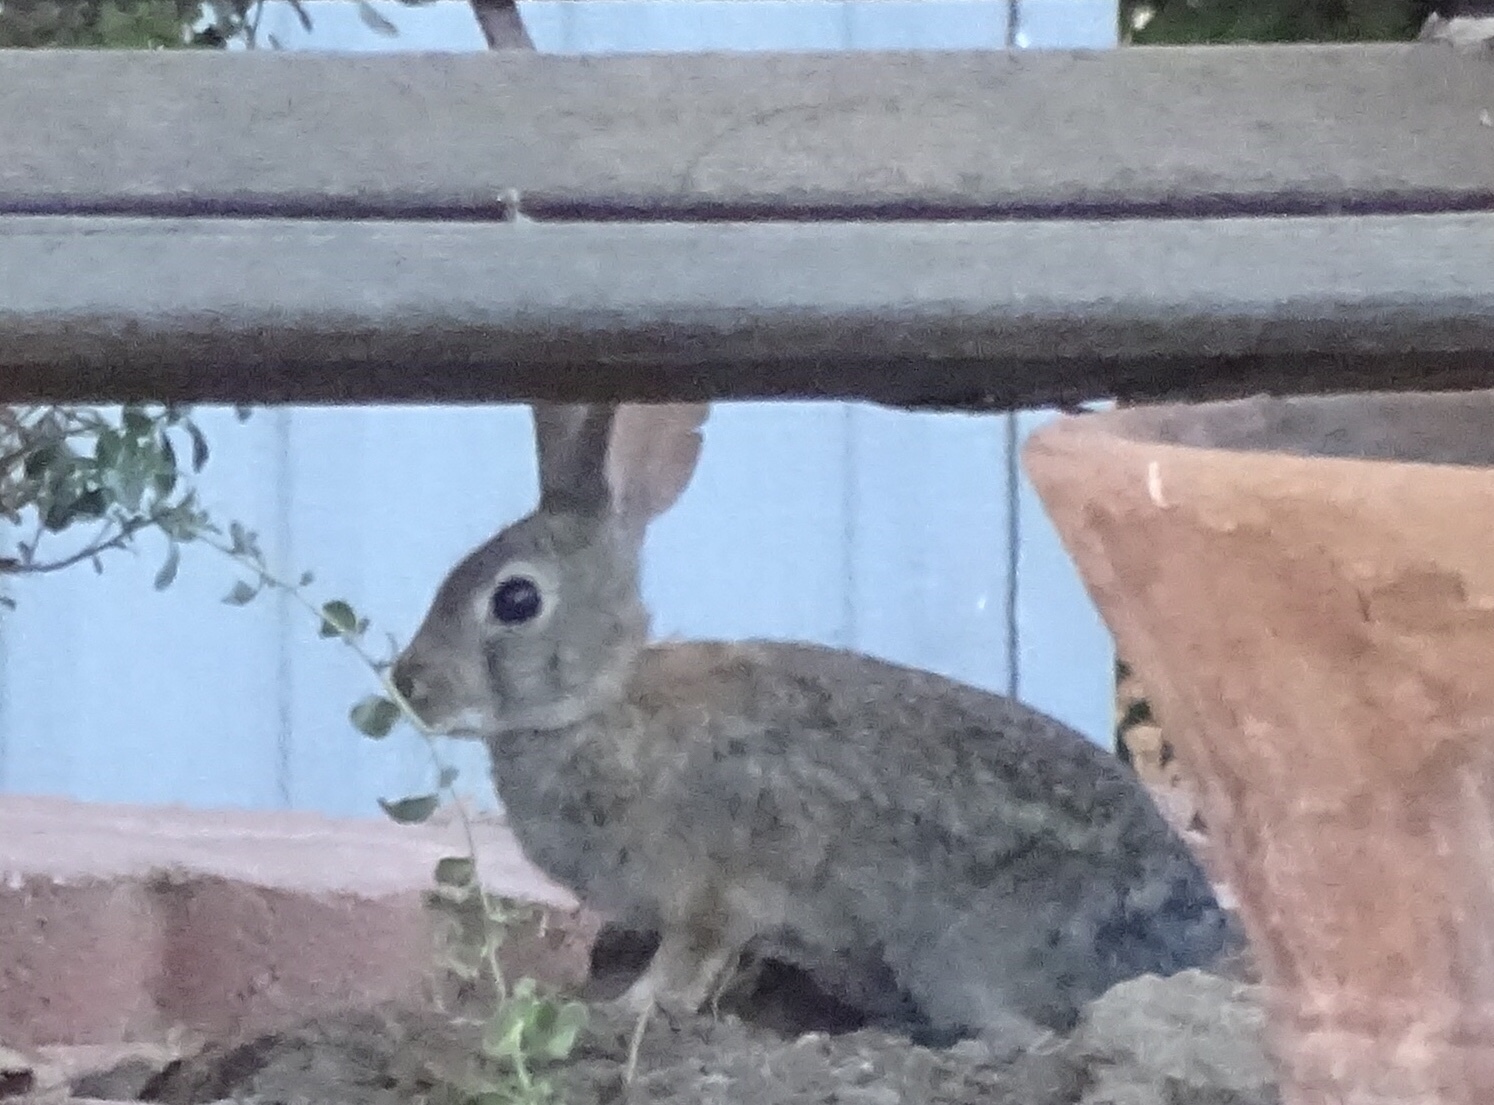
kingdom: Animalia
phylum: Chordata
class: Mammalia
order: Lagomorpha
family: Leporidae
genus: Sylvilagus
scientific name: Sylvilagus audubonii
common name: Desert cottontail
